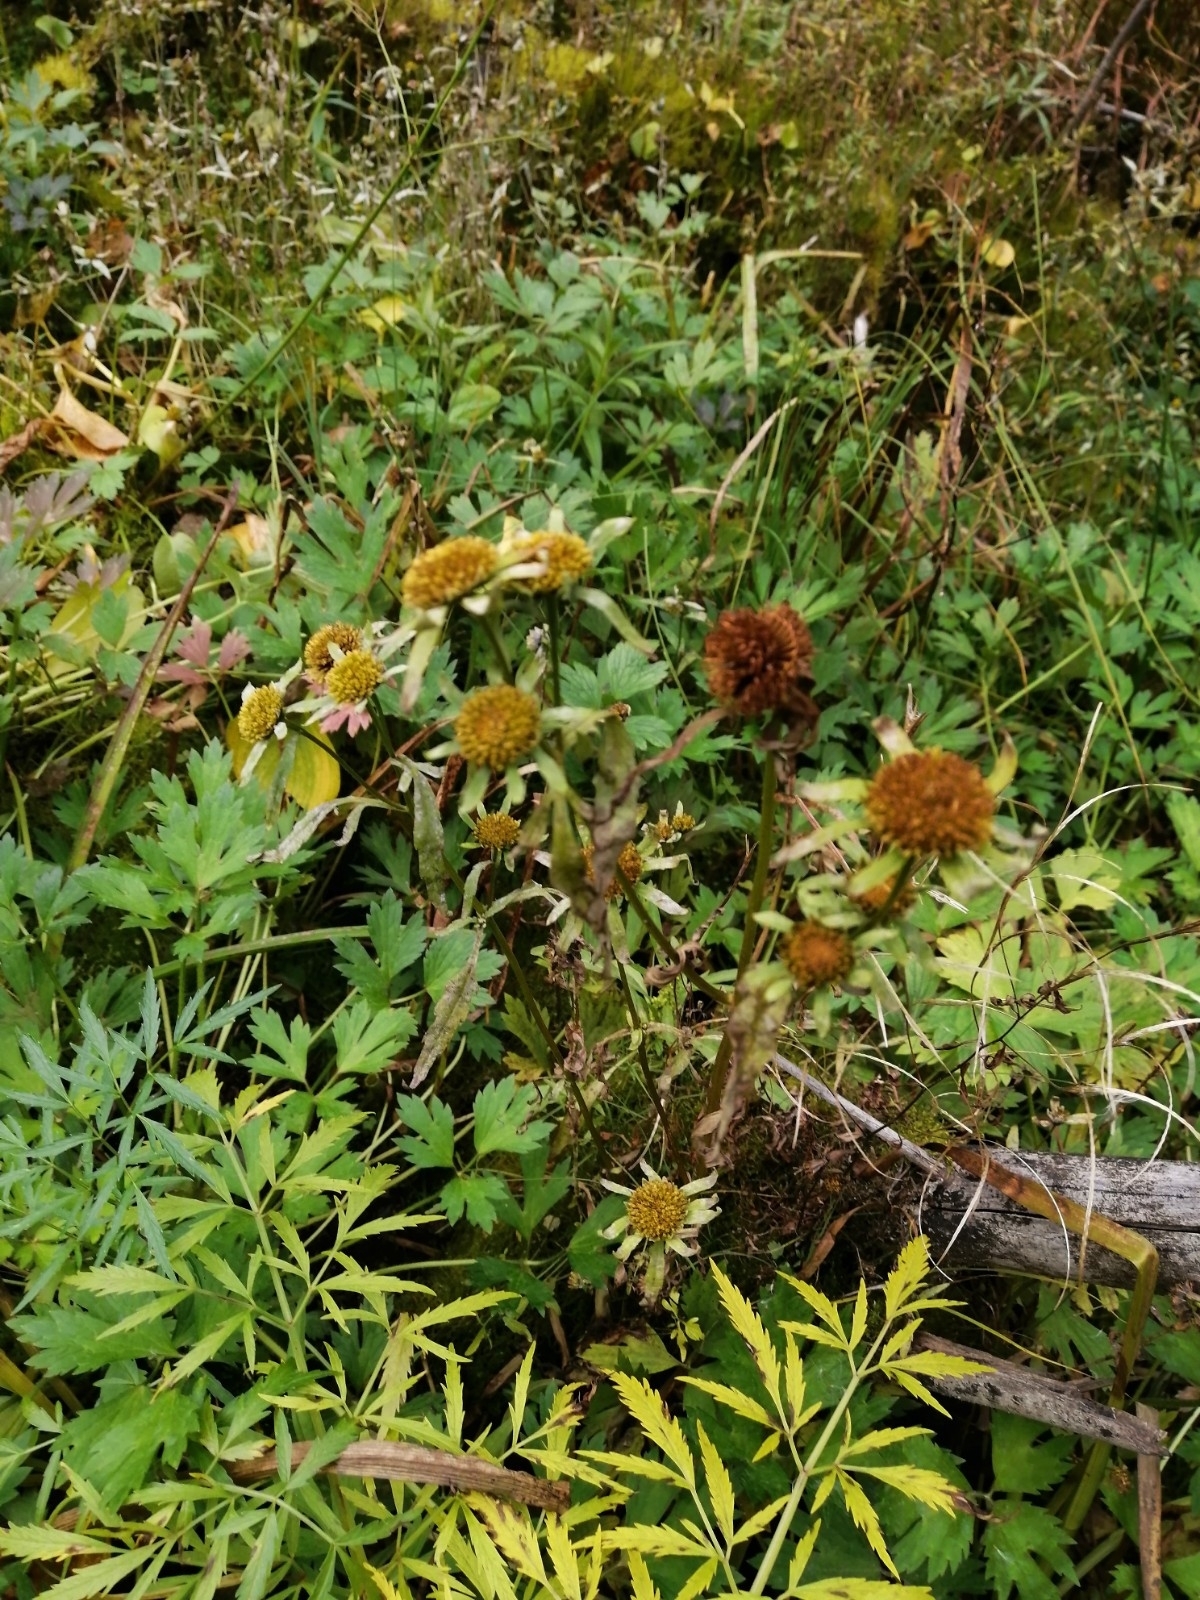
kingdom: Plantae
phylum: Tracheophyta
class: Magnoliopsida
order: Asterales
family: Asteraceae
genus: Bidens
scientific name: Bidens radiata
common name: Radiating bur-marigold
